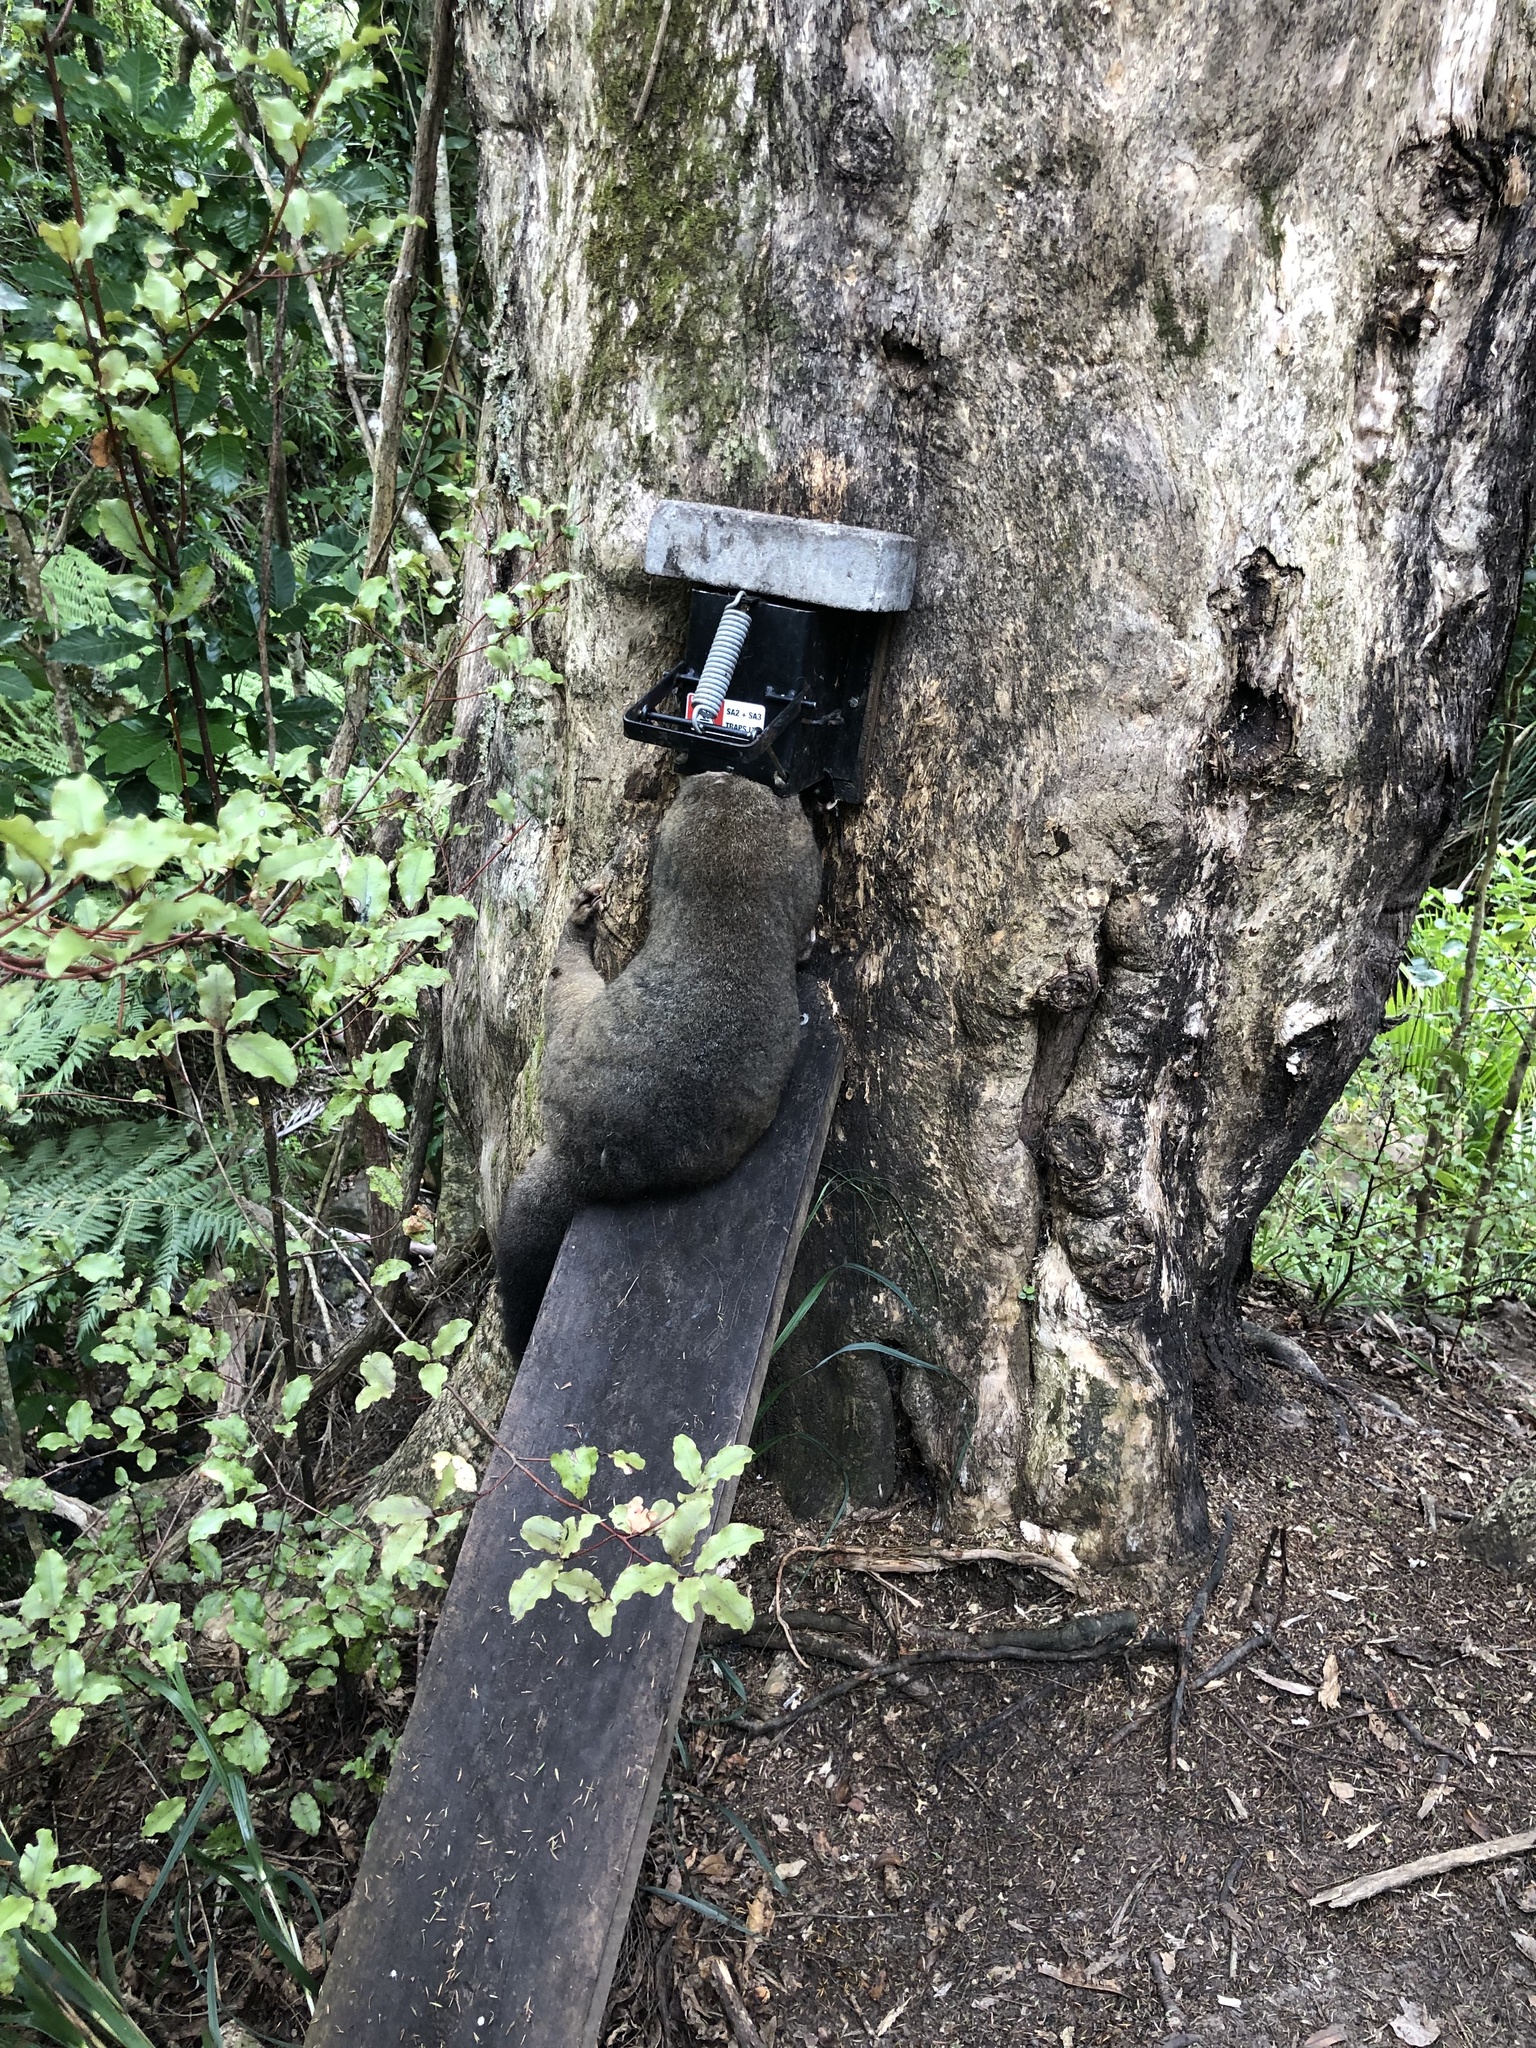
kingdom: Animalia
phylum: Chordata
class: Mammalia
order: Diprotodontia
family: Phalangeridae
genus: Trichosurus
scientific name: Trichosurus vulpecula
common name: Common brushtail
